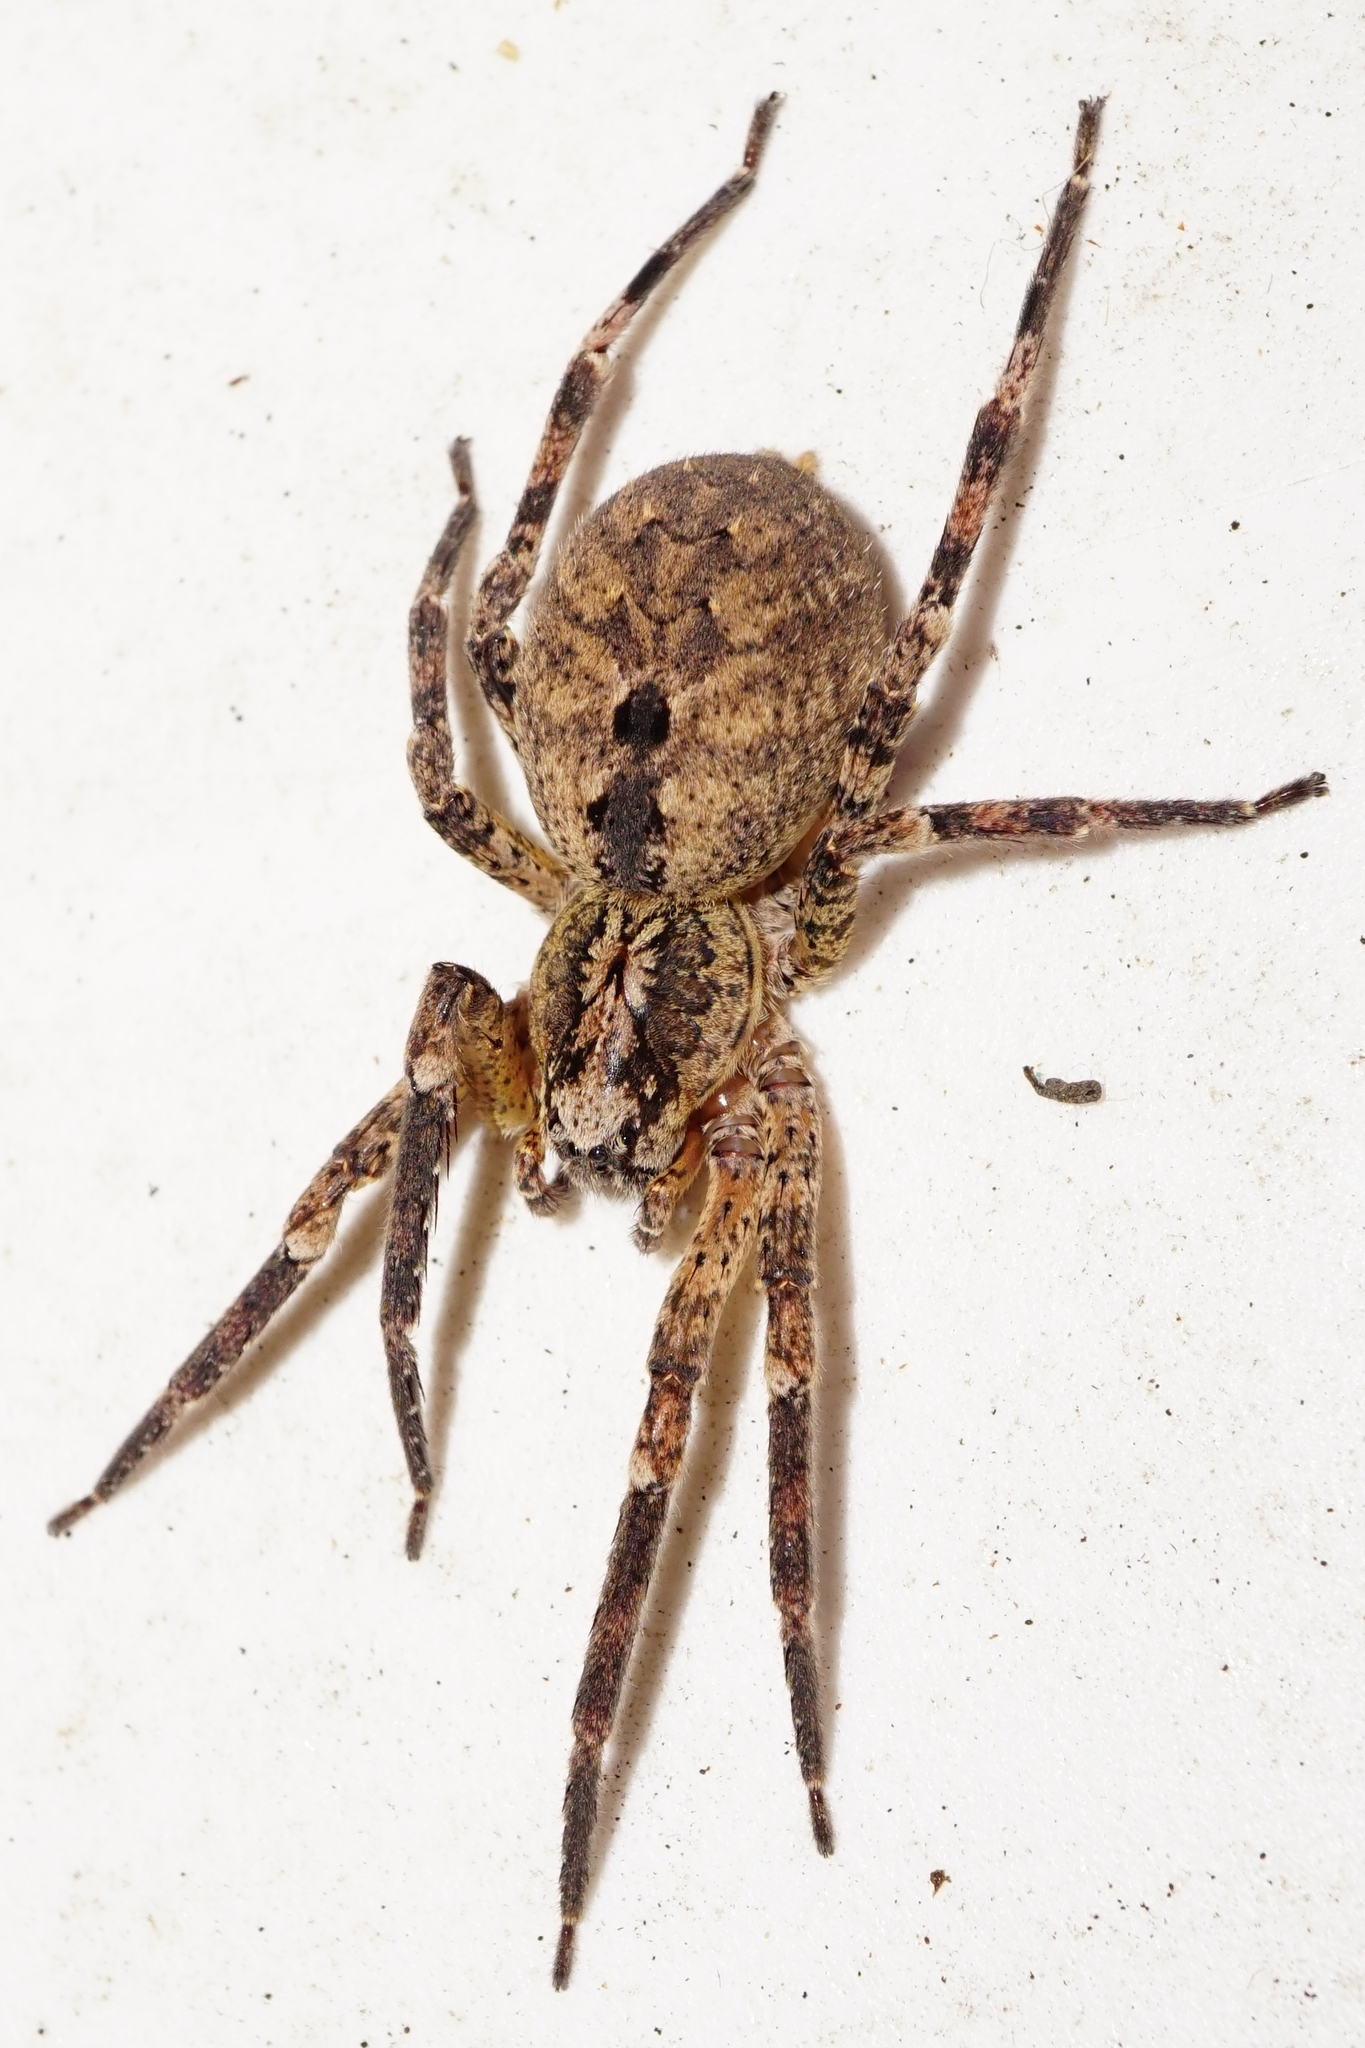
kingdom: Animalia
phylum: Arthropoda
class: Arachnida
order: Araneae
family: Zoropsidae
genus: Zoropsis
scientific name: Zoropsis spinimana
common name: Zoropsid spider
